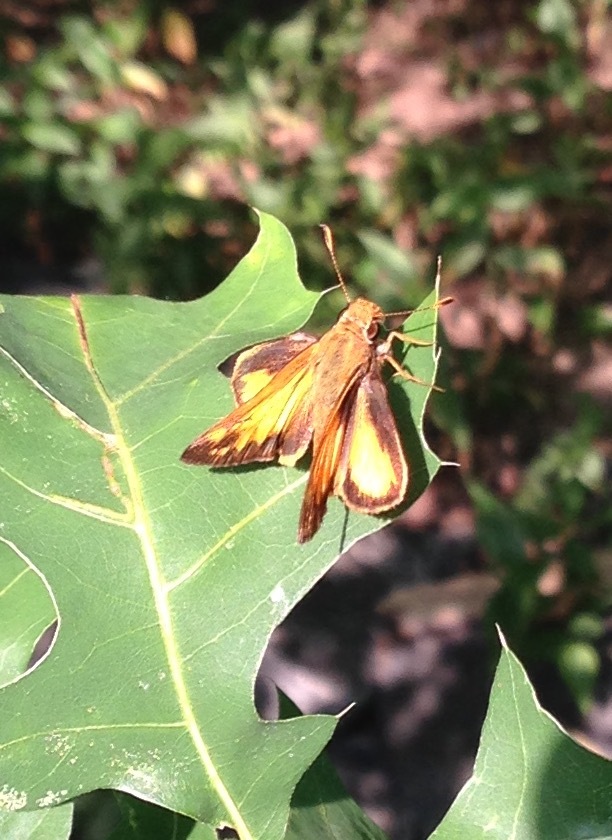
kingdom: Animalia
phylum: Arthropoda
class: Insecta
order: Lepidoptera
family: Hesperiidae
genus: Lon
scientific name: Lon zabulon
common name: Zabulon skipper
